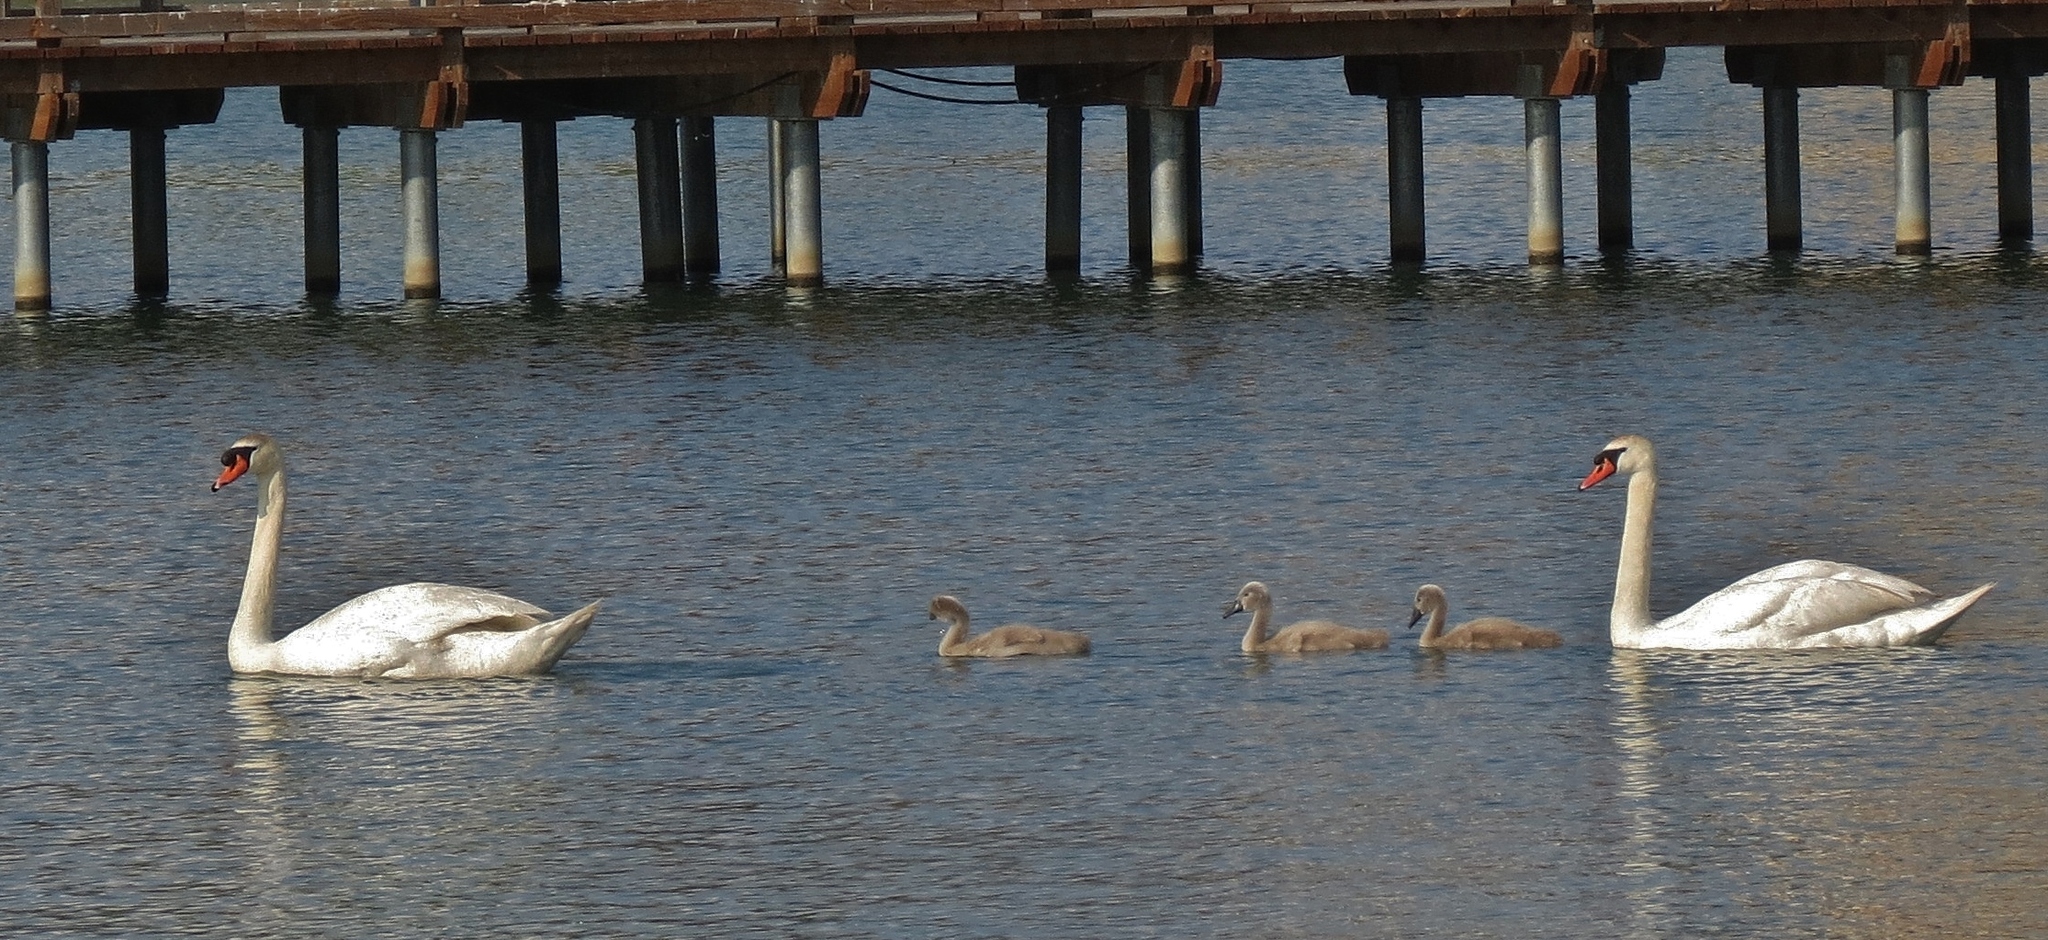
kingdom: Animalia
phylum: Chordata
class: Aves
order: Anseriformes
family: Anatidae
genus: Cygnus
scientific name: Cygnus olor
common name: Mute swan
